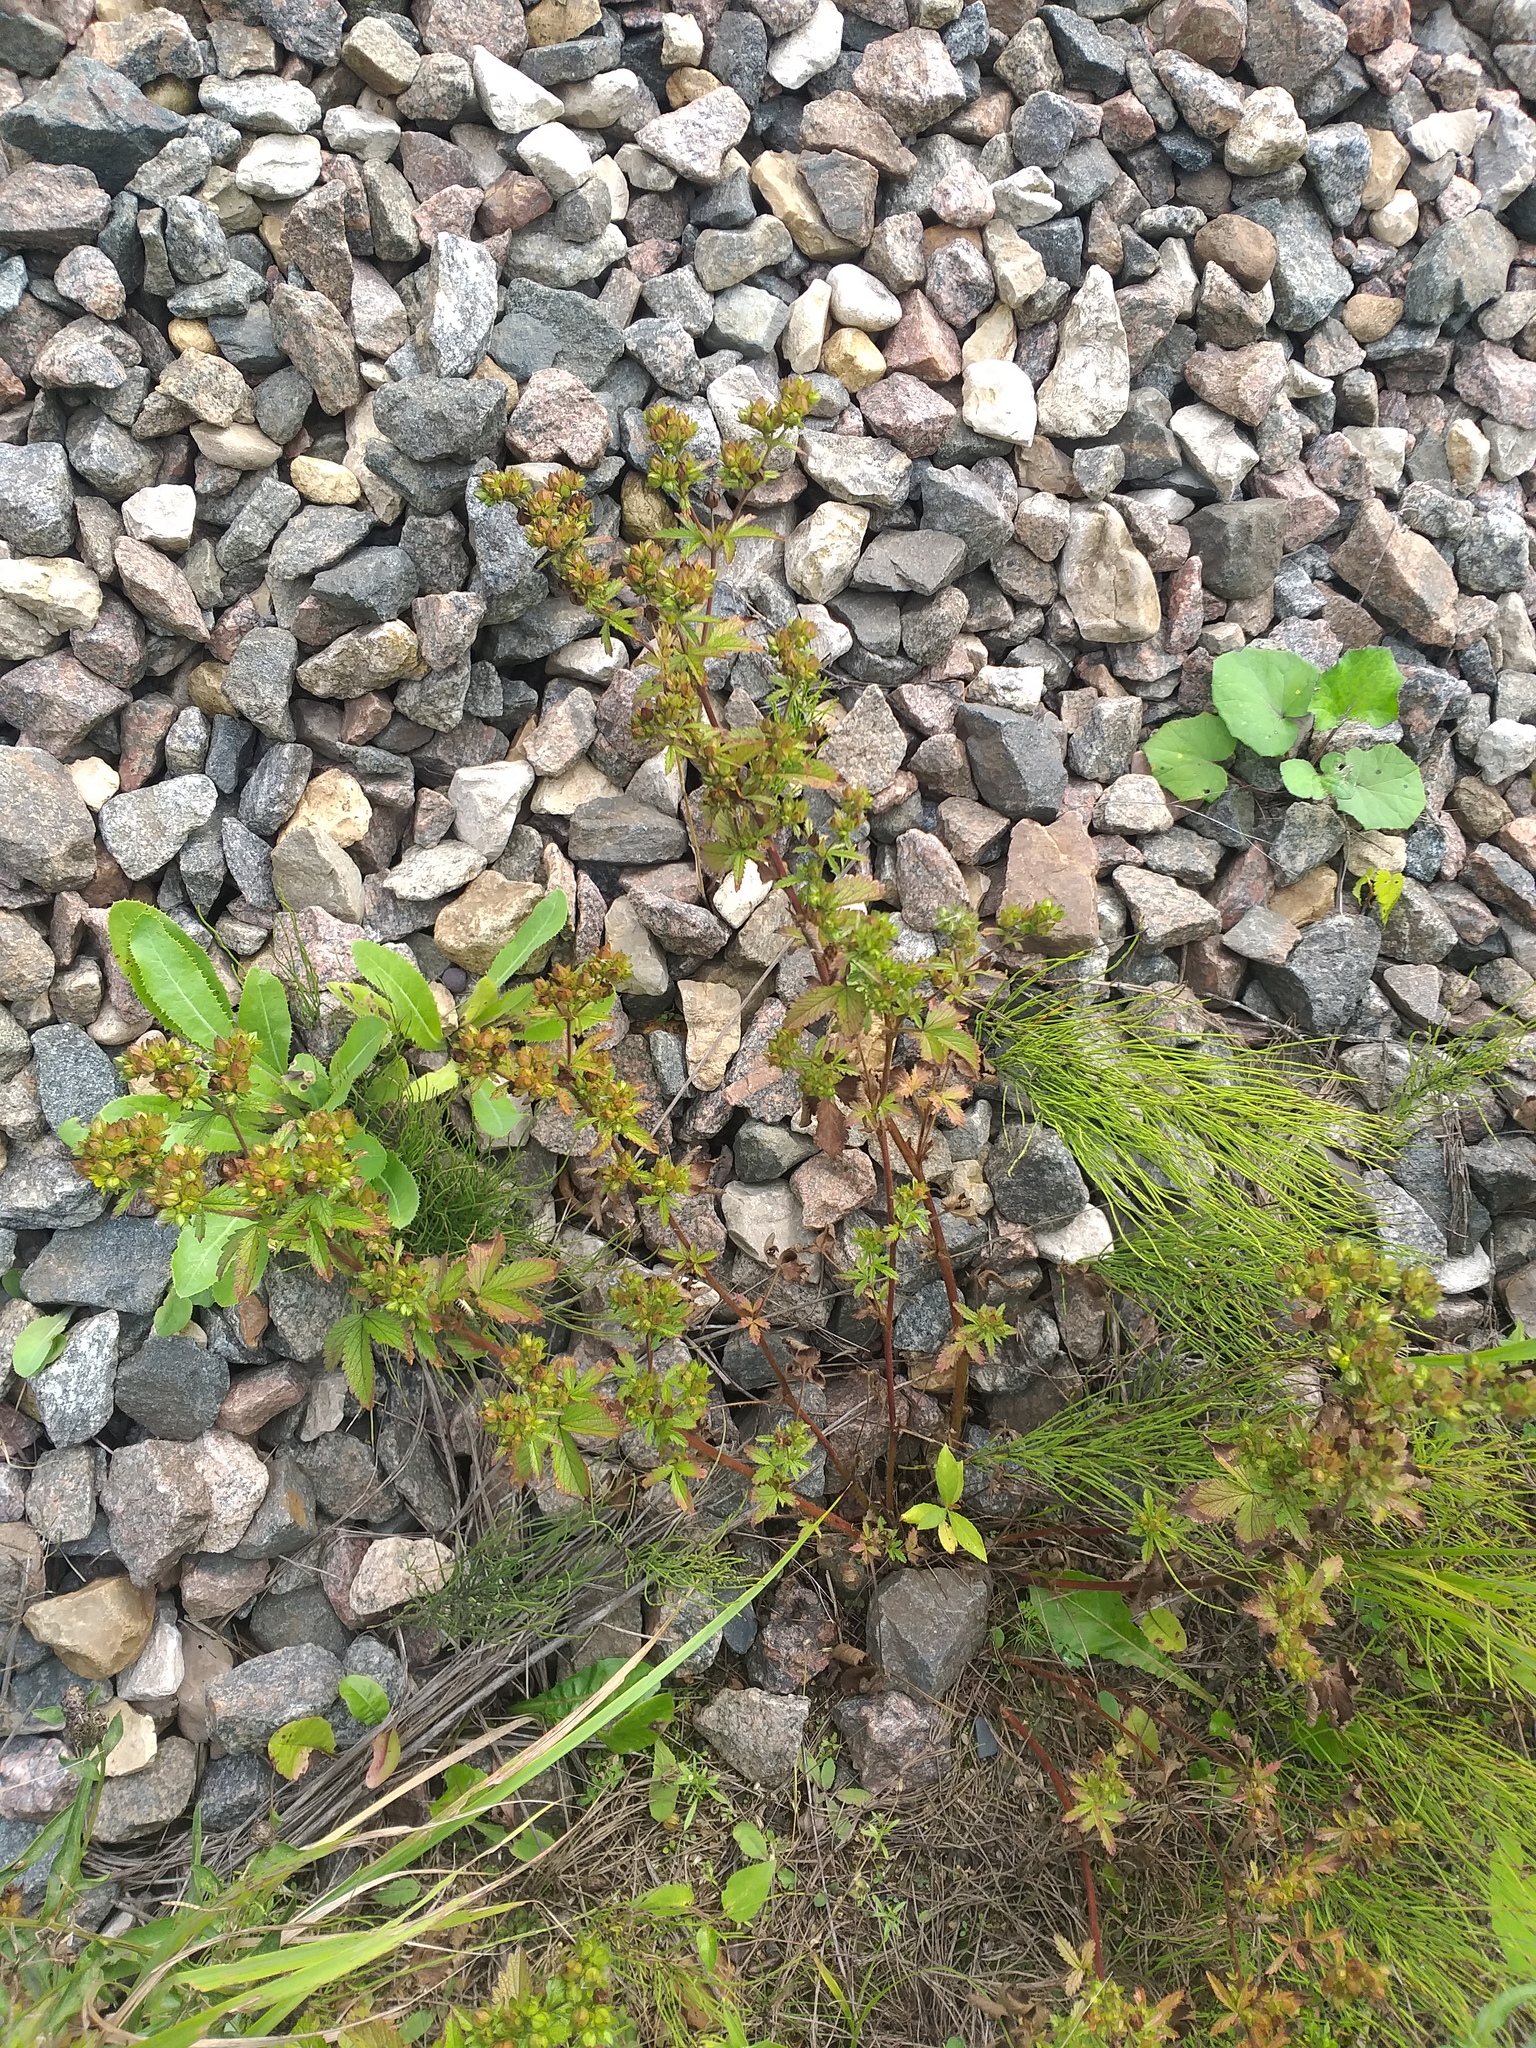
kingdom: Plantae
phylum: Tracheophyta
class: Magnoliopsida
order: Rosales
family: Rosaceae
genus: Potentilla
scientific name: Potentilla norvegica
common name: Ternate-leaved cinquefoil
